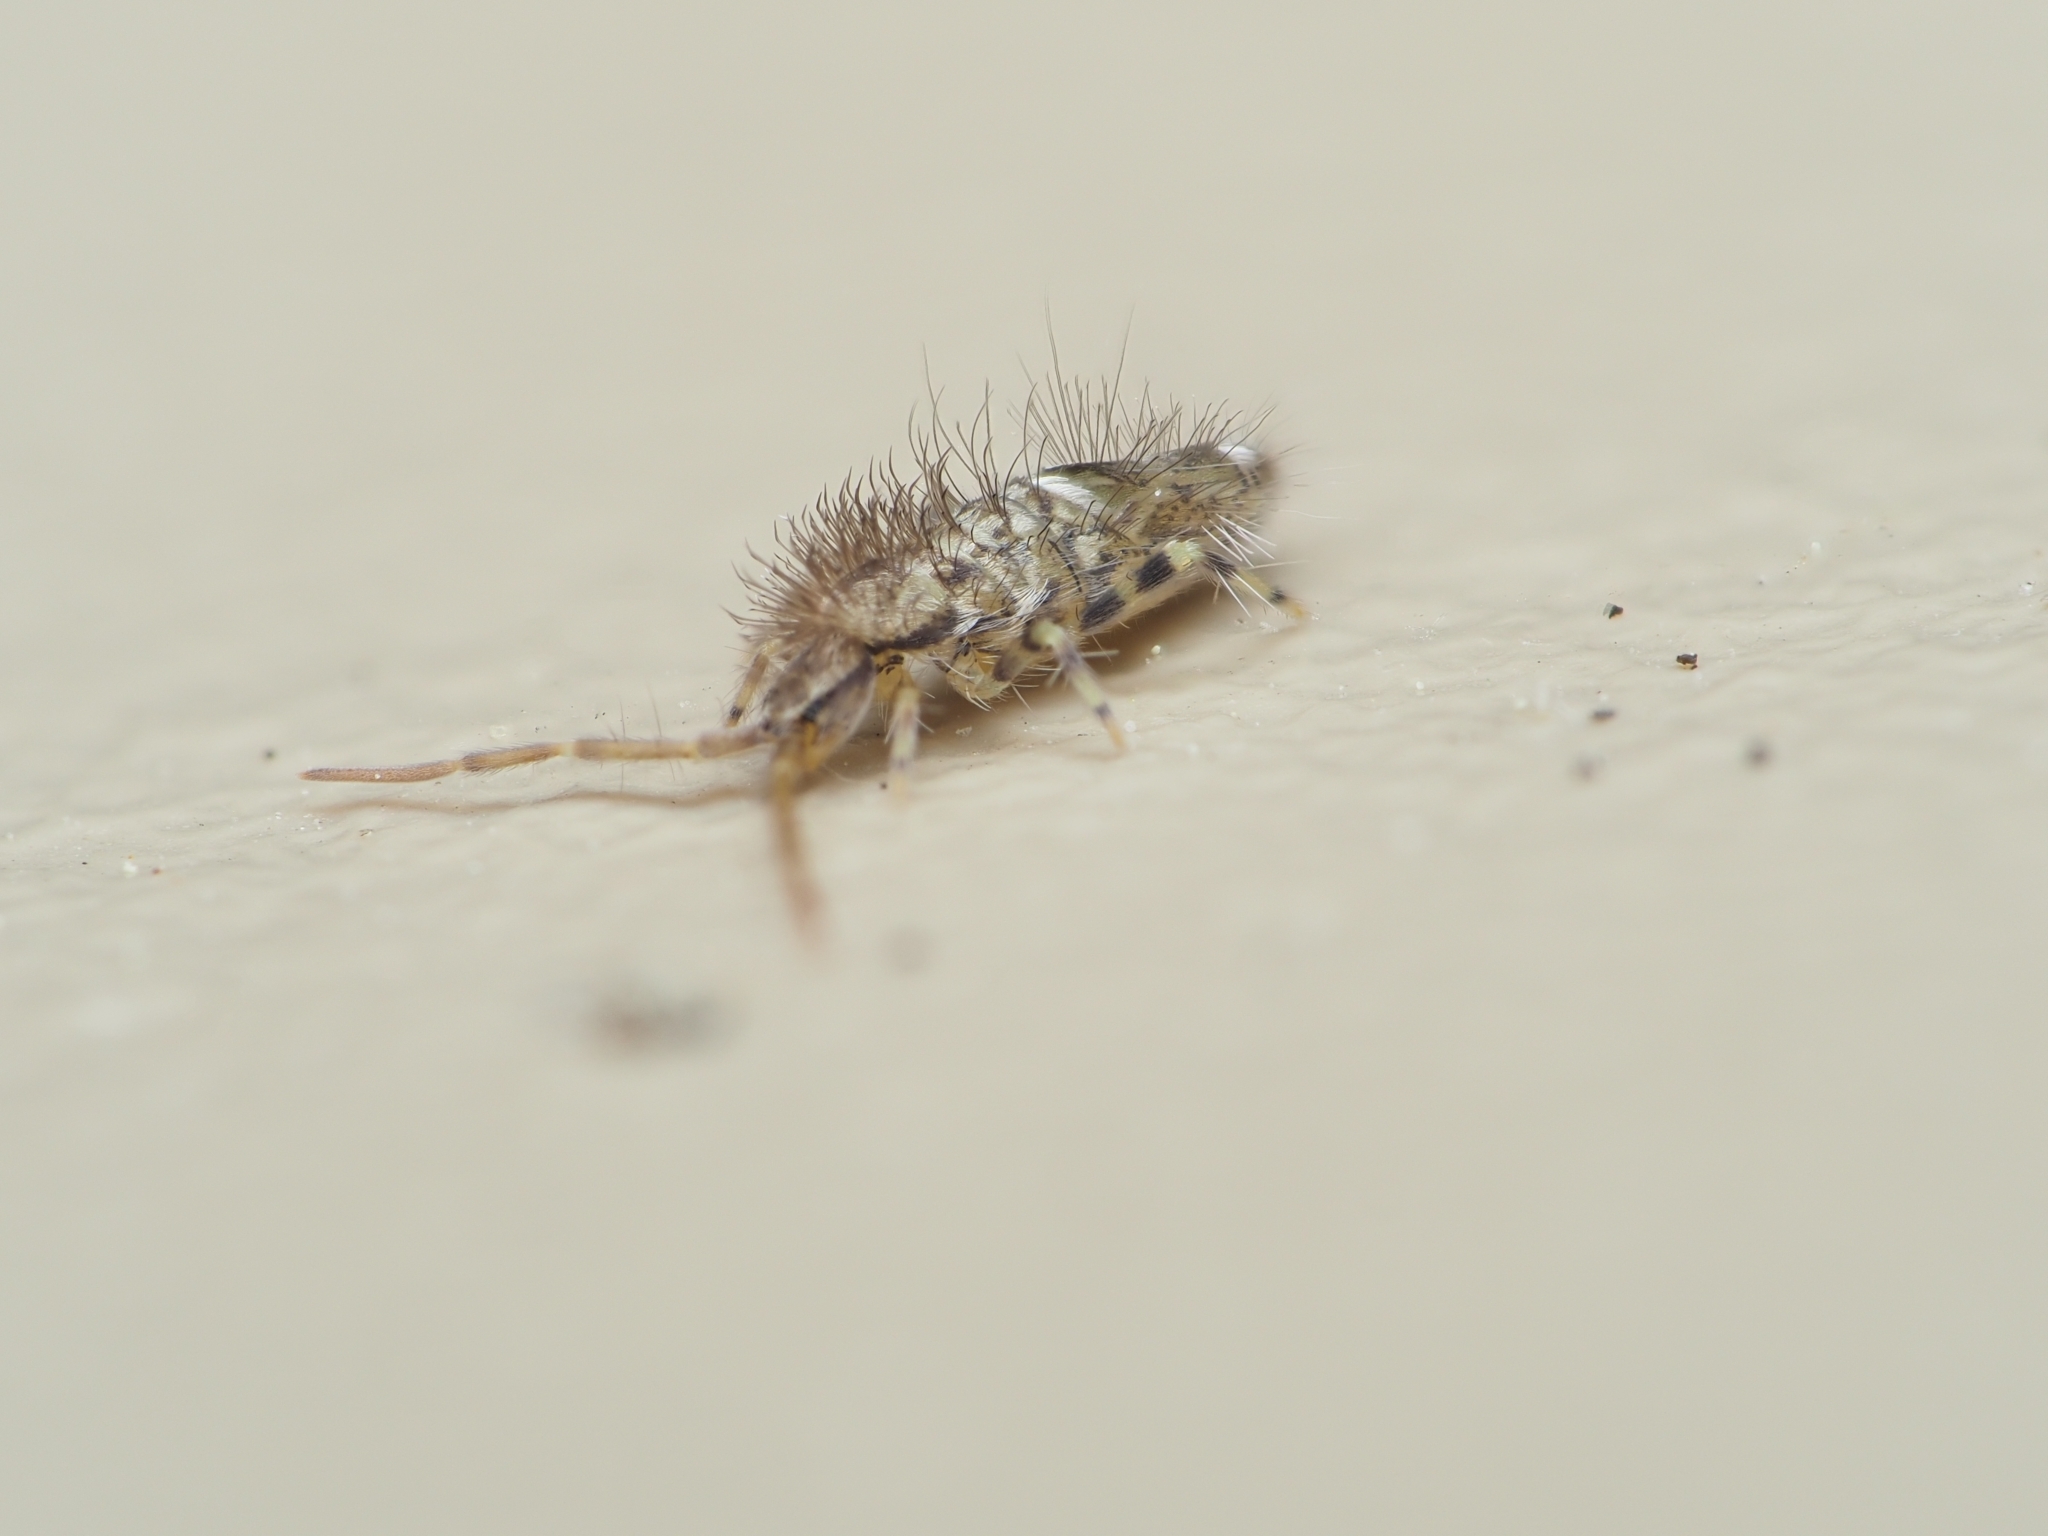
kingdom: Animalia
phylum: Arthropoda
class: Collembola
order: Entomobryomorpha
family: Entomobryidae
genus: Entomobrya
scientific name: Entomobrya dorsalis
